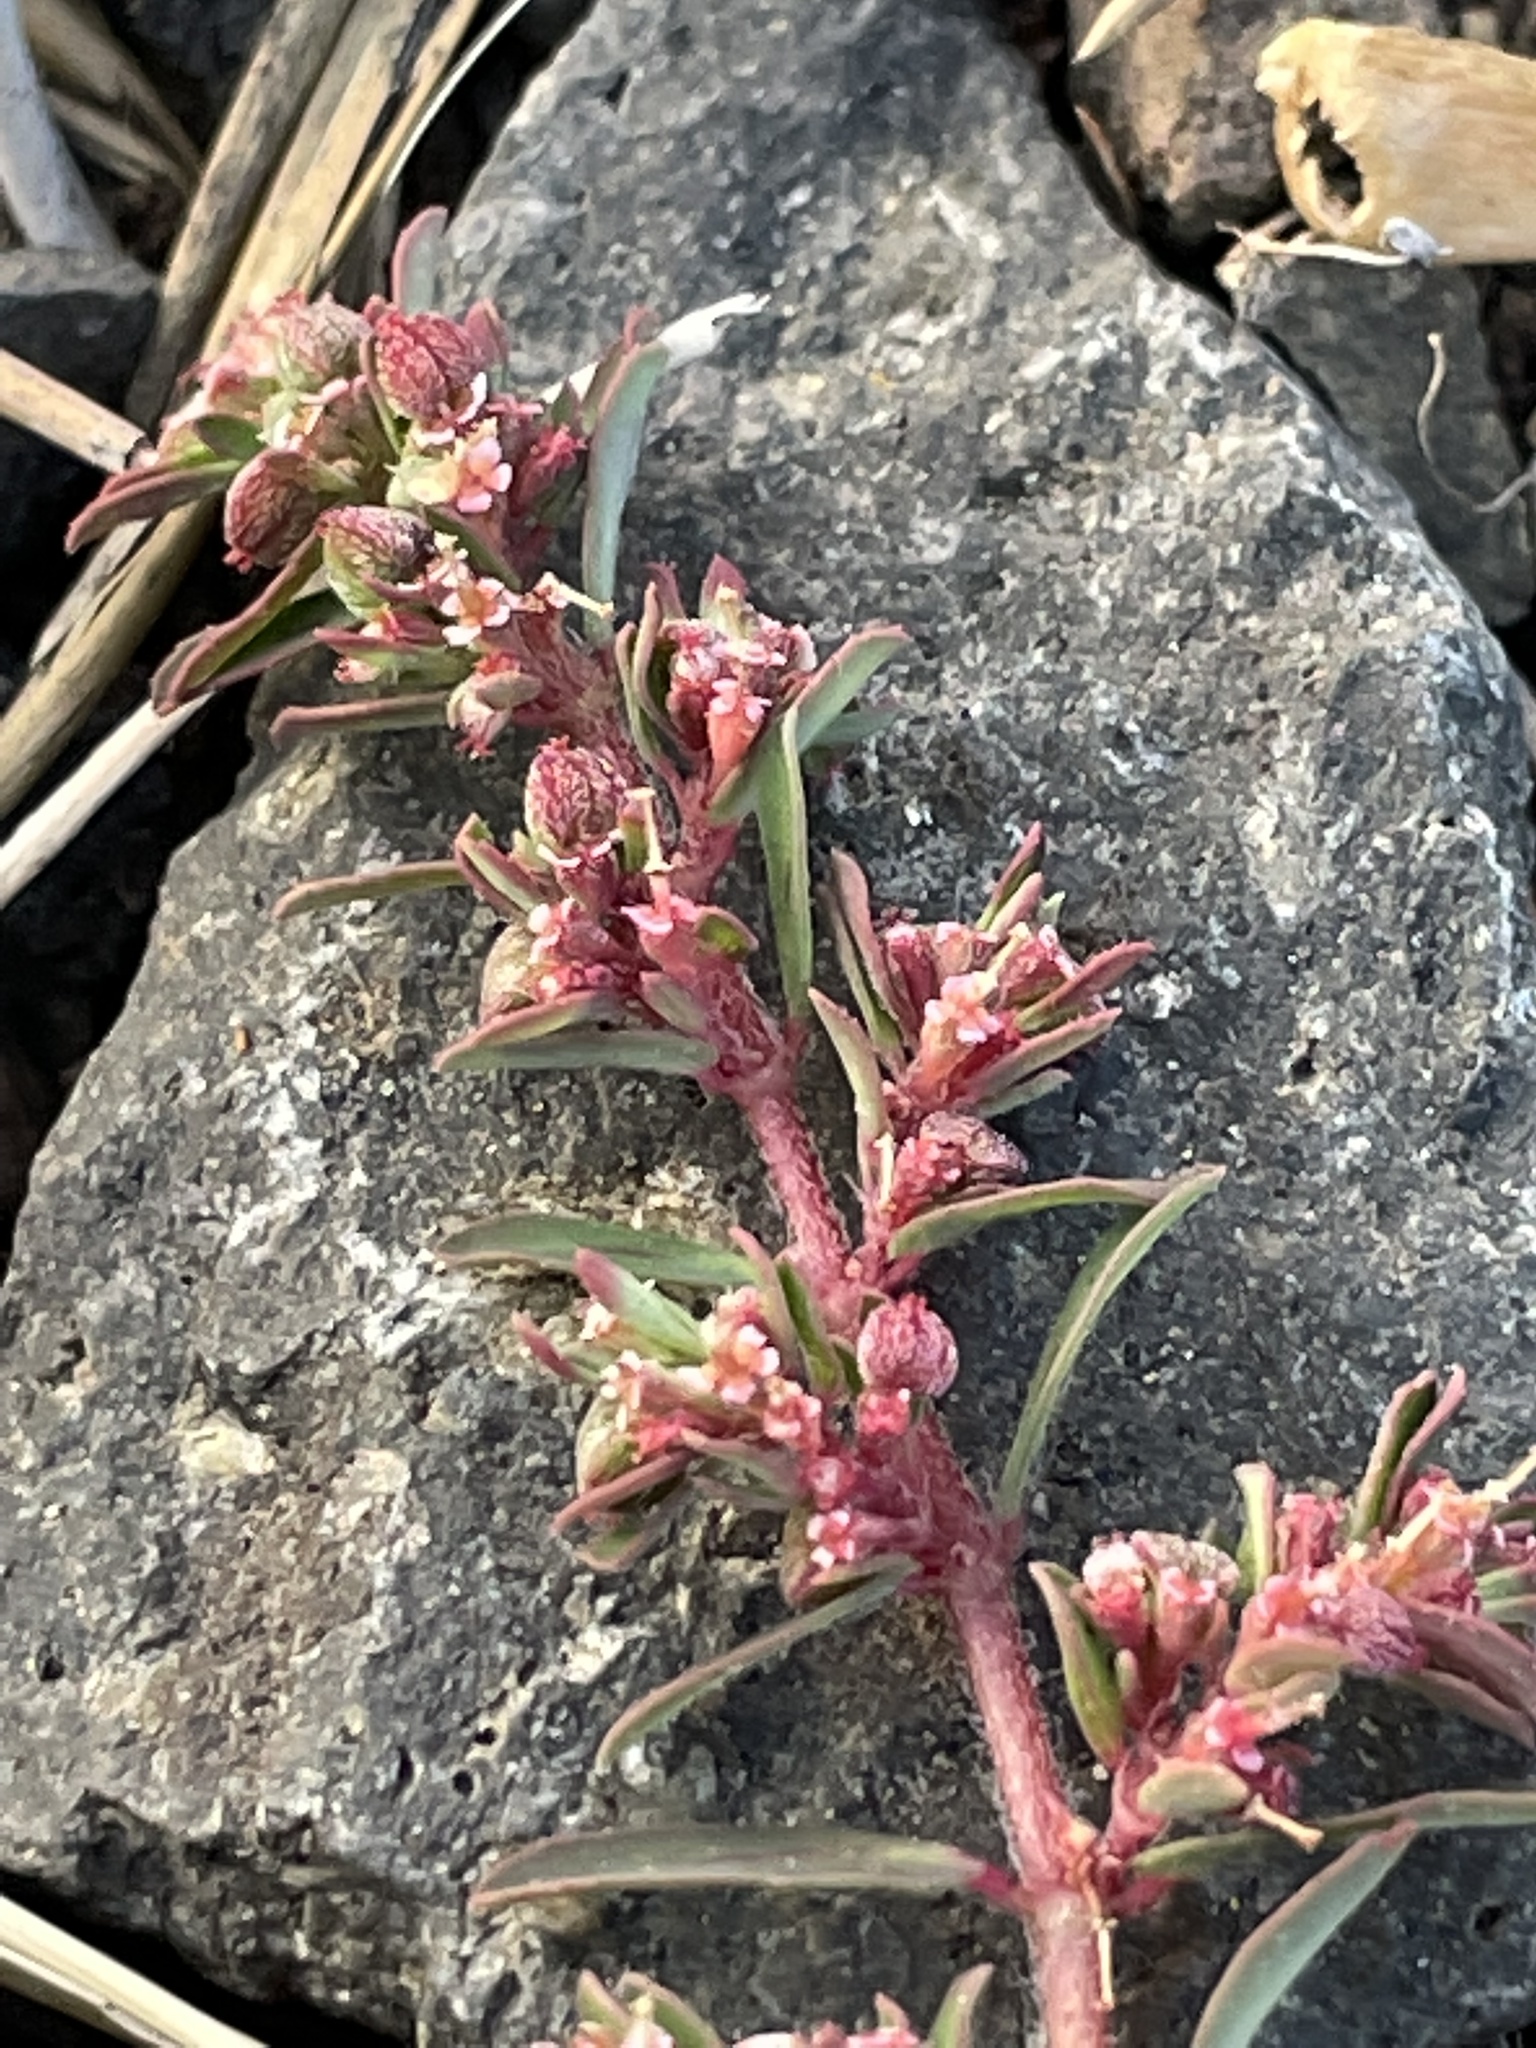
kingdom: Plantae
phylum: Tracheophyta
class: Magnoliopsida
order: Malpighiales
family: Euphorbiaceae
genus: Euphorbia
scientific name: Euphorbia maculata
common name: Spotted spurge
